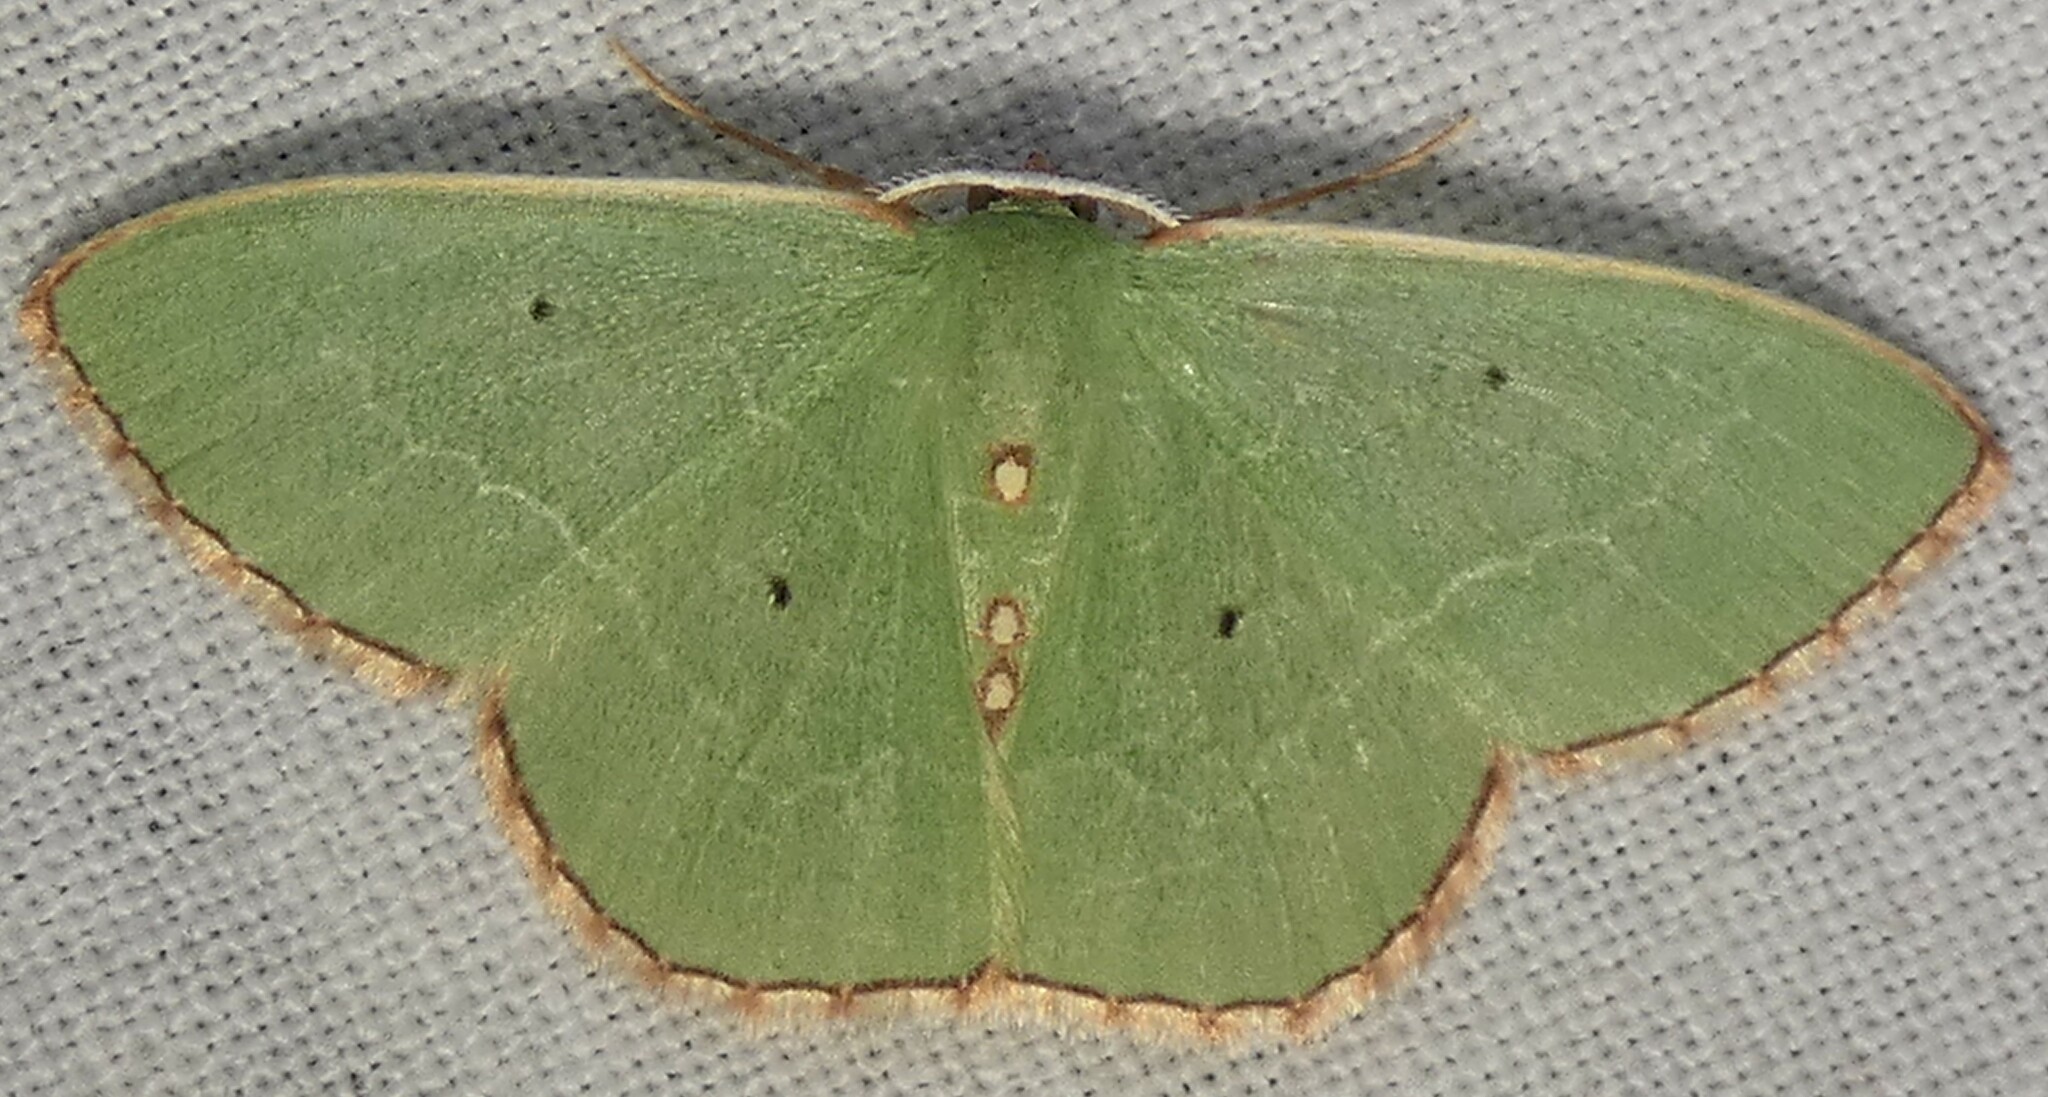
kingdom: Animalia
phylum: Arthropoda
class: Insecta
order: Lepidoptera
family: Geometridae
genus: Nemoria
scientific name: Nemoria lixaria
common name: Red-bordered emerald
